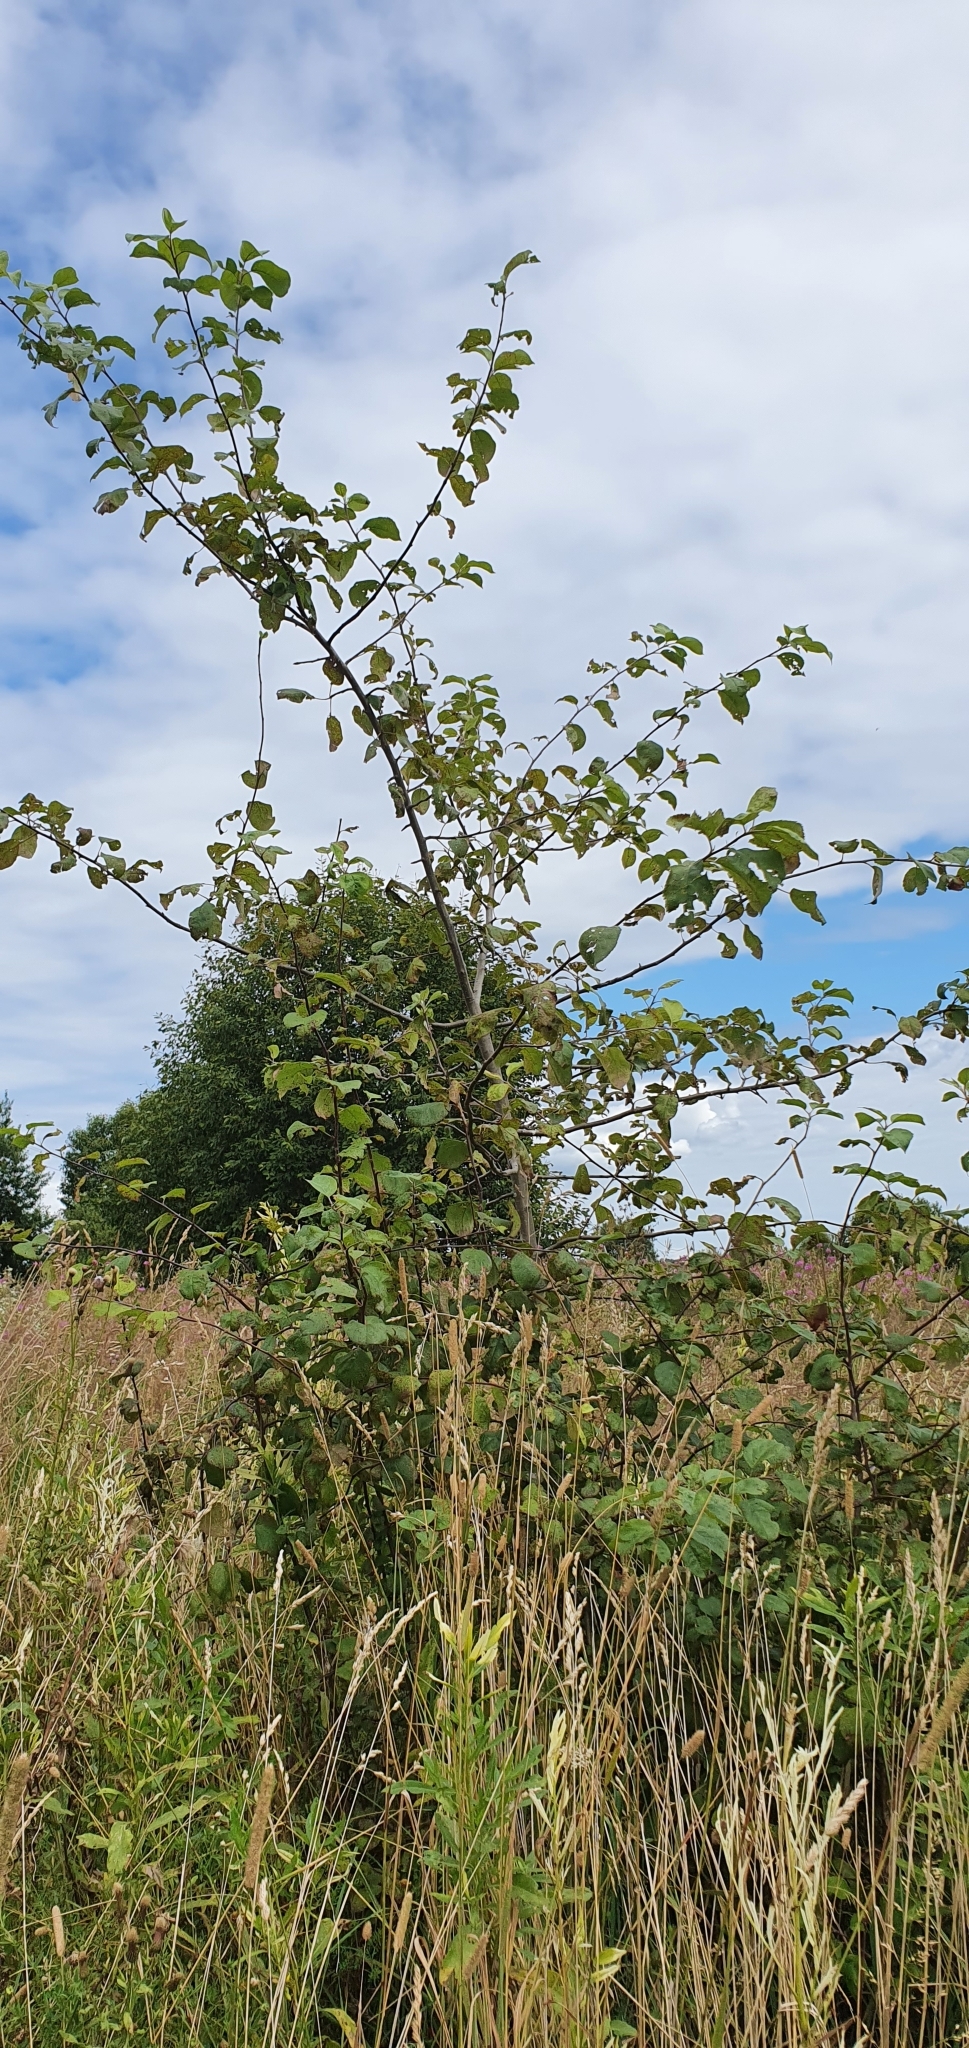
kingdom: Plantae
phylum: Tracheophyta
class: Magnoliopsida
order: Rosales
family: Rosaceae
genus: Malus
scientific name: Malus domestica
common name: Apple
